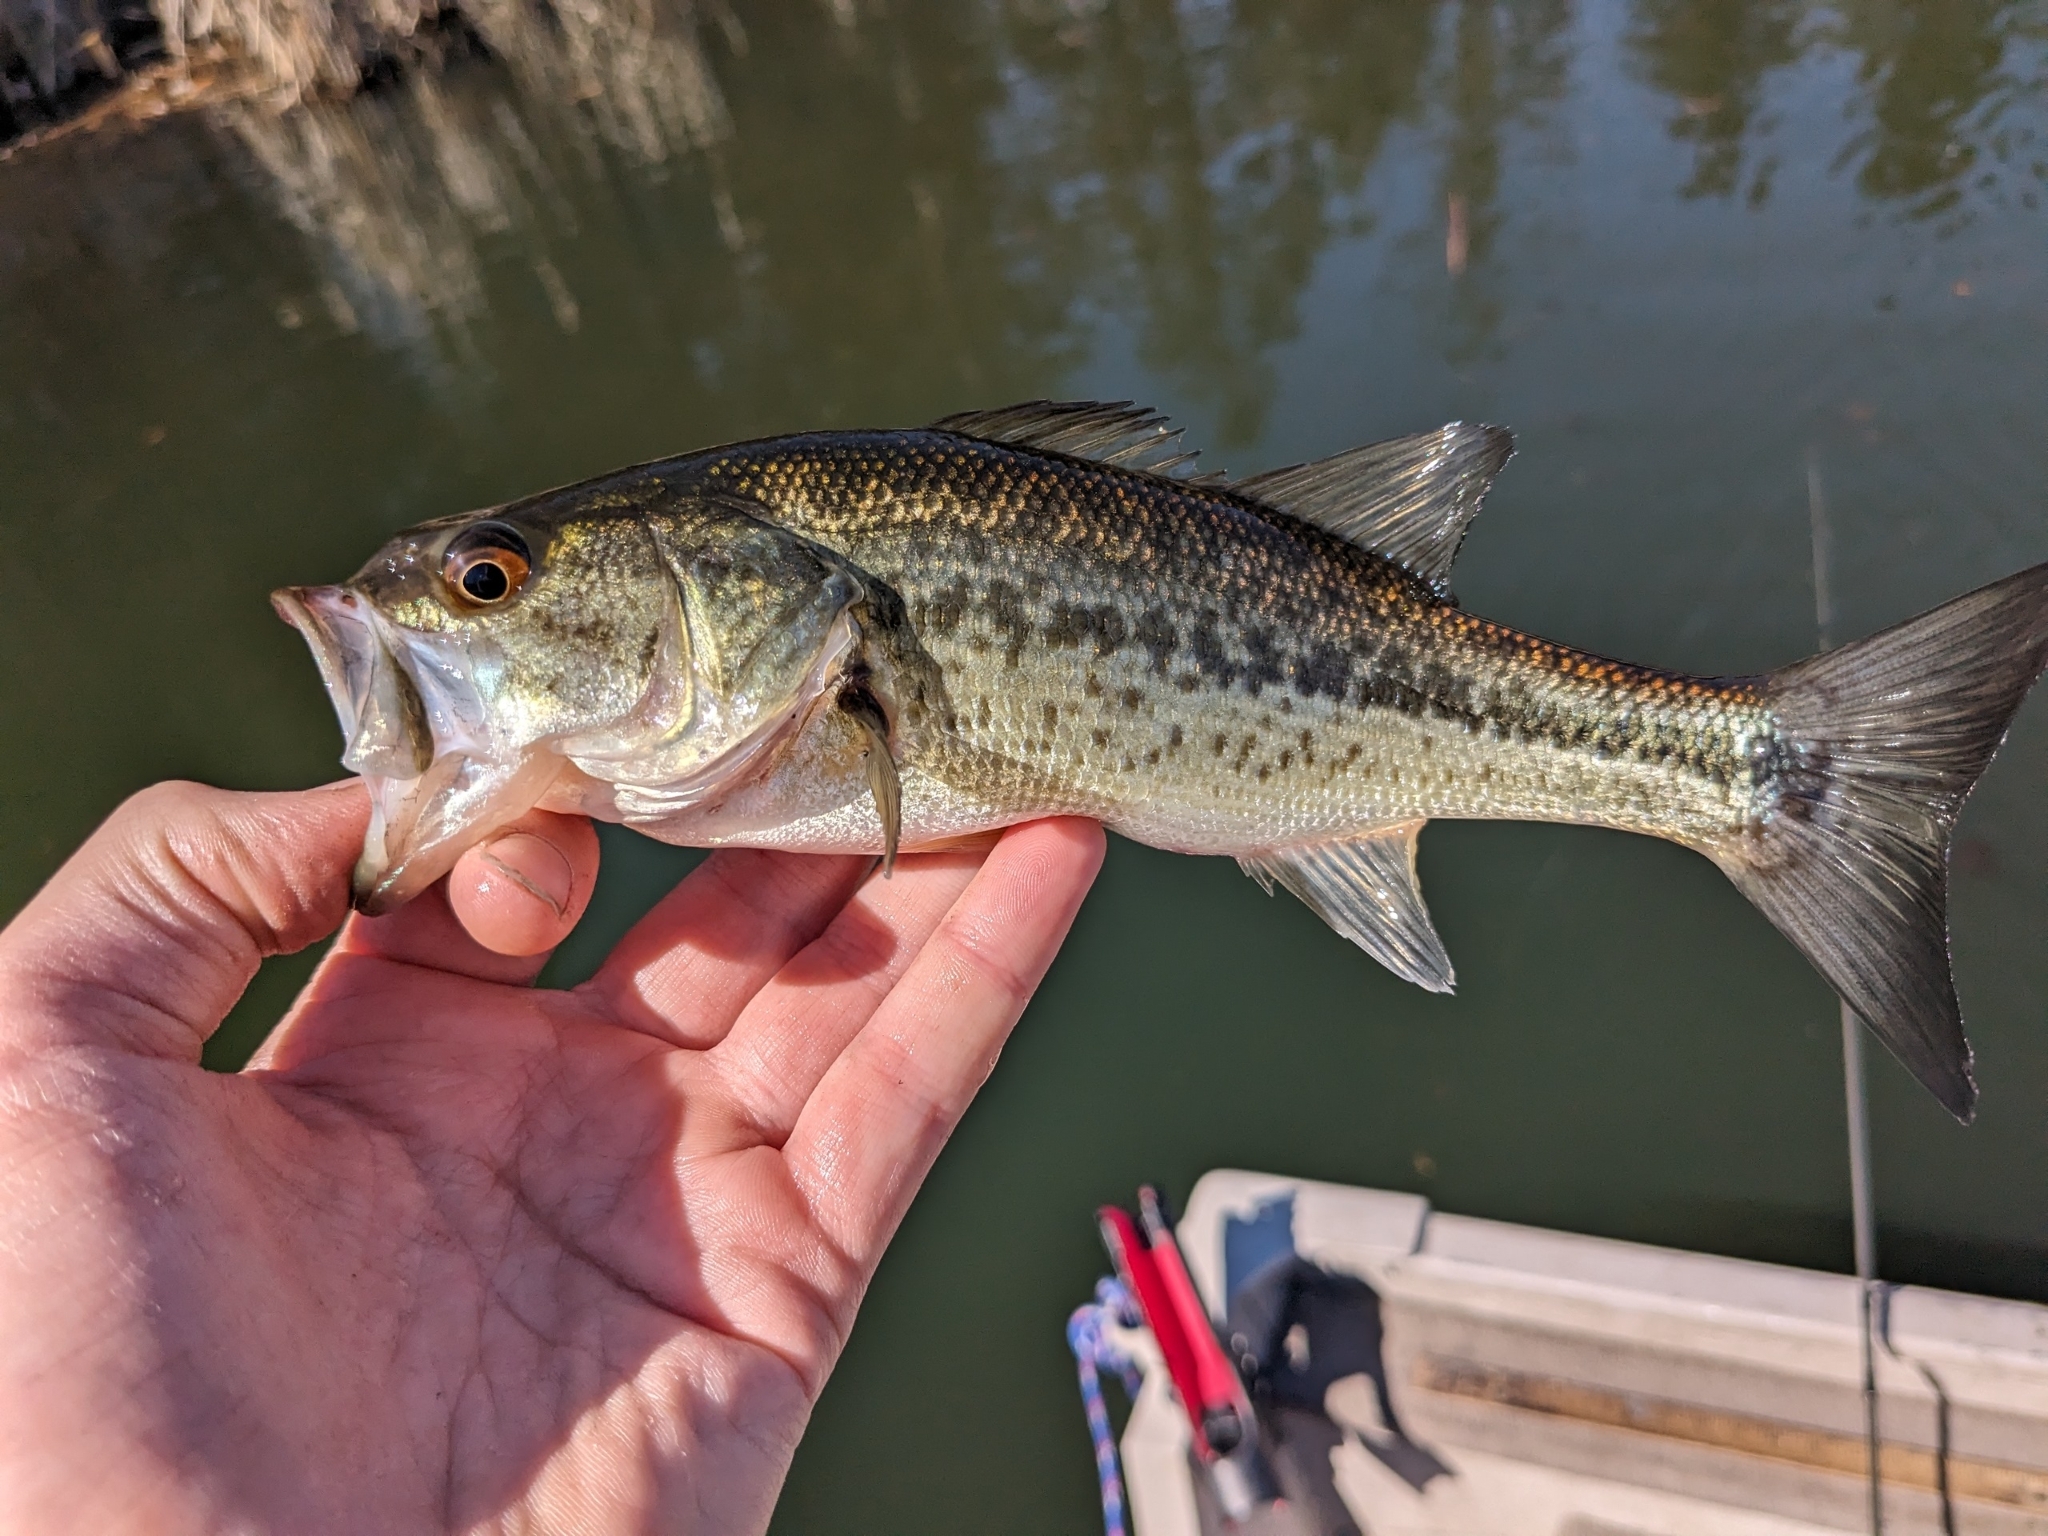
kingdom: Animalia
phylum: Chordata
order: Perciformes
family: Centrarchidae
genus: Micropterus
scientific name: Micropterus
